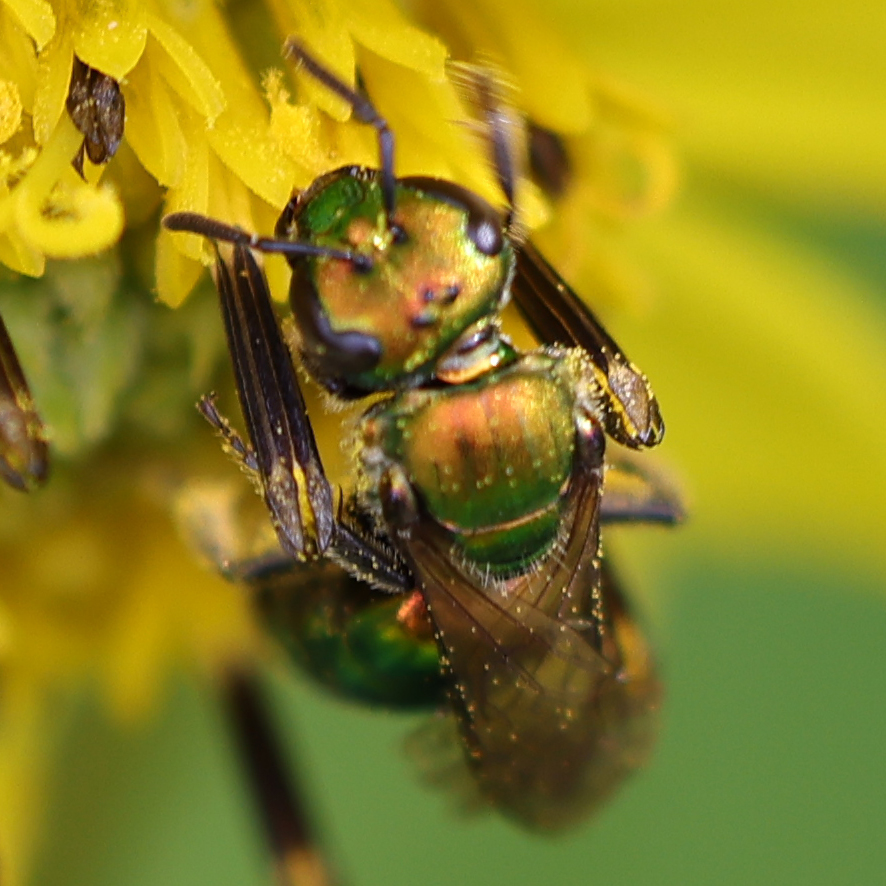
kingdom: Animalia
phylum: Arthropoda
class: Insecta
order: Hymenoptera
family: Halictidae
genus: Augochlora
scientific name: Augochlora pura
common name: Pure green sweat bee
